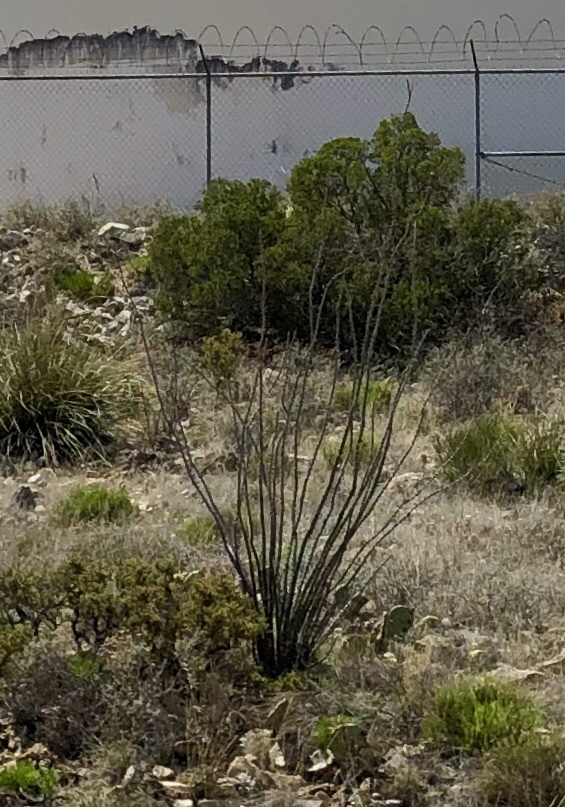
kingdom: Plantae
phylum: Tracheophyta
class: Magnoliopsida
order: Ericales
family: Fouquieriaceae
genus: Fouquieria
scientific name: Fouquieria splendens
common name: Vine-cactus
